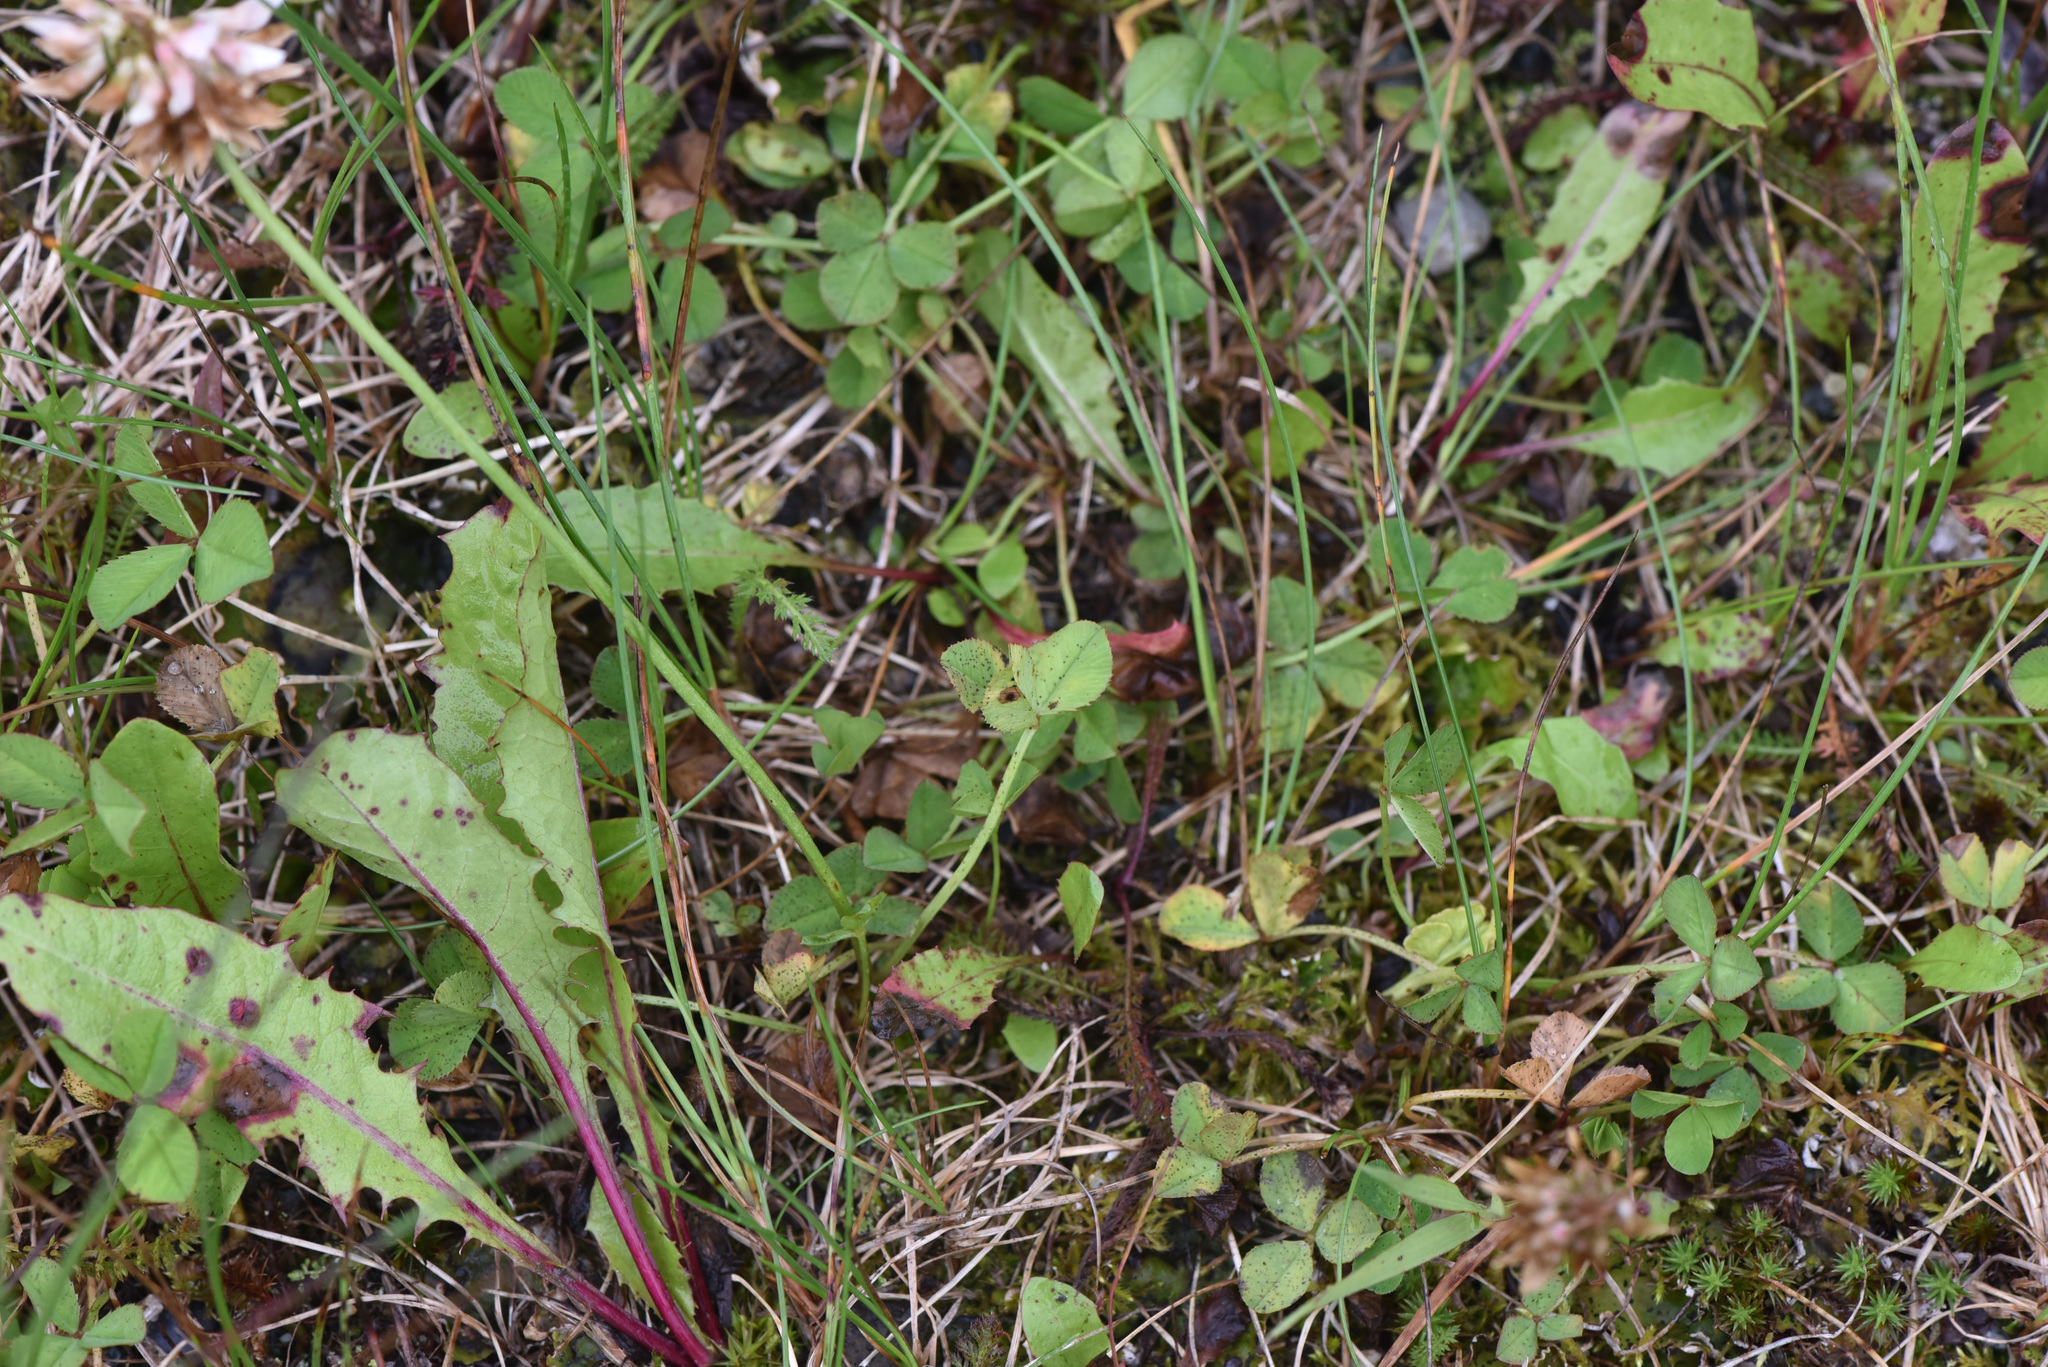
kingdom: Plantae
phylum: Tracheophyta
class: Magnoliopsida
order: Fabales
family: Fabaceae
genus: Trifolium
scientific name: Trifolium repens
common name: White clover
